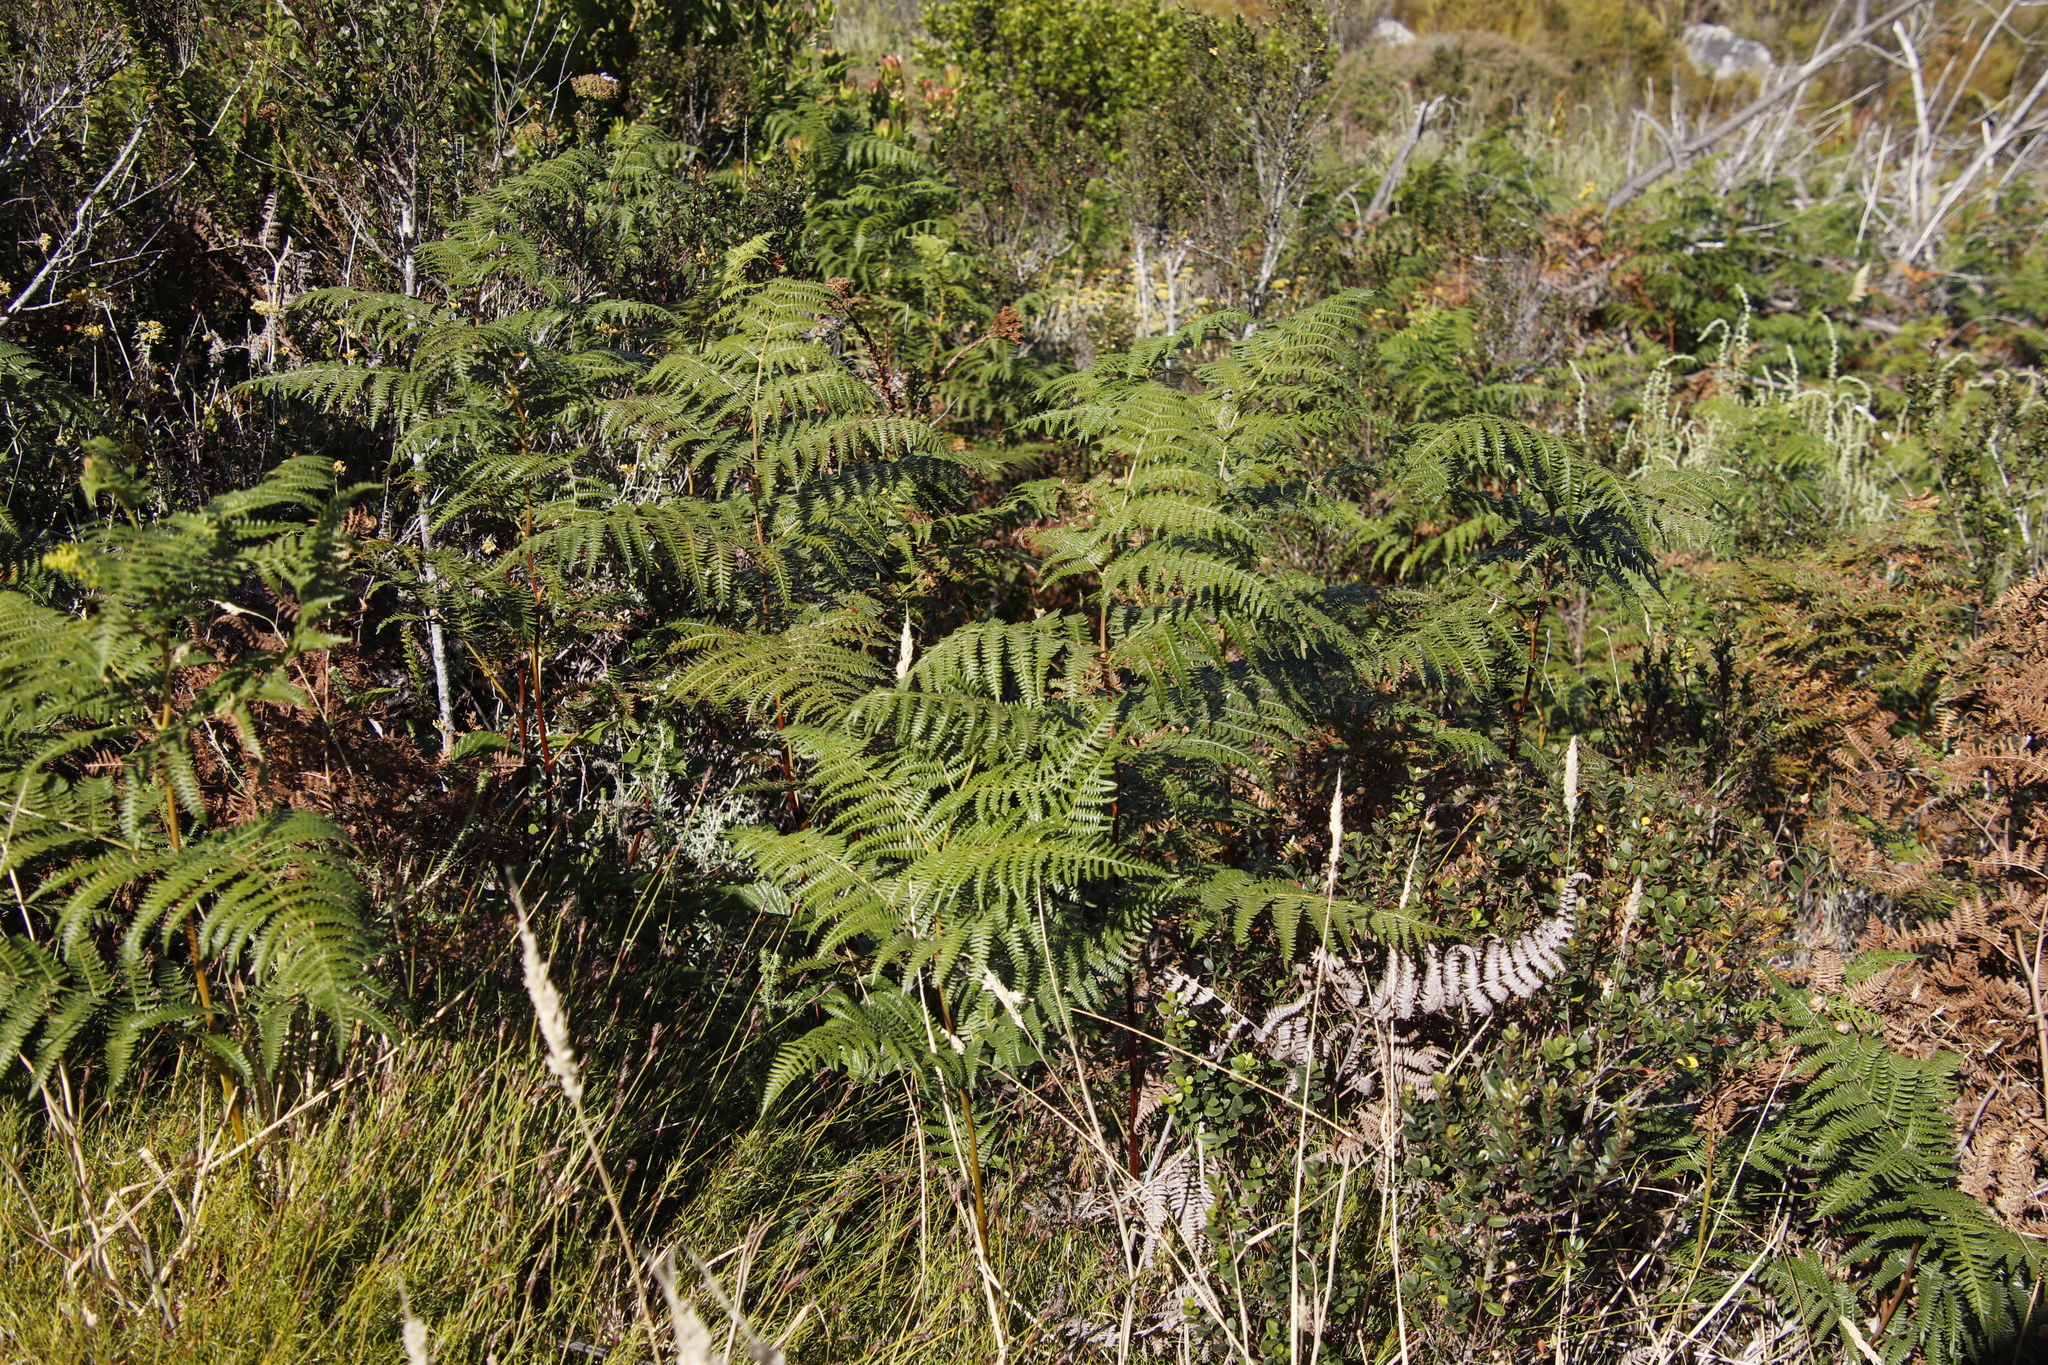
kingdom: Plantae
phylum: Tracheophyta
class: Polypodiopsida
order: Polypodiales
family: Dennstaedtiaceae
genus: Pteridium
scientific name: Pteridium aquilinum
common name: Bracken
